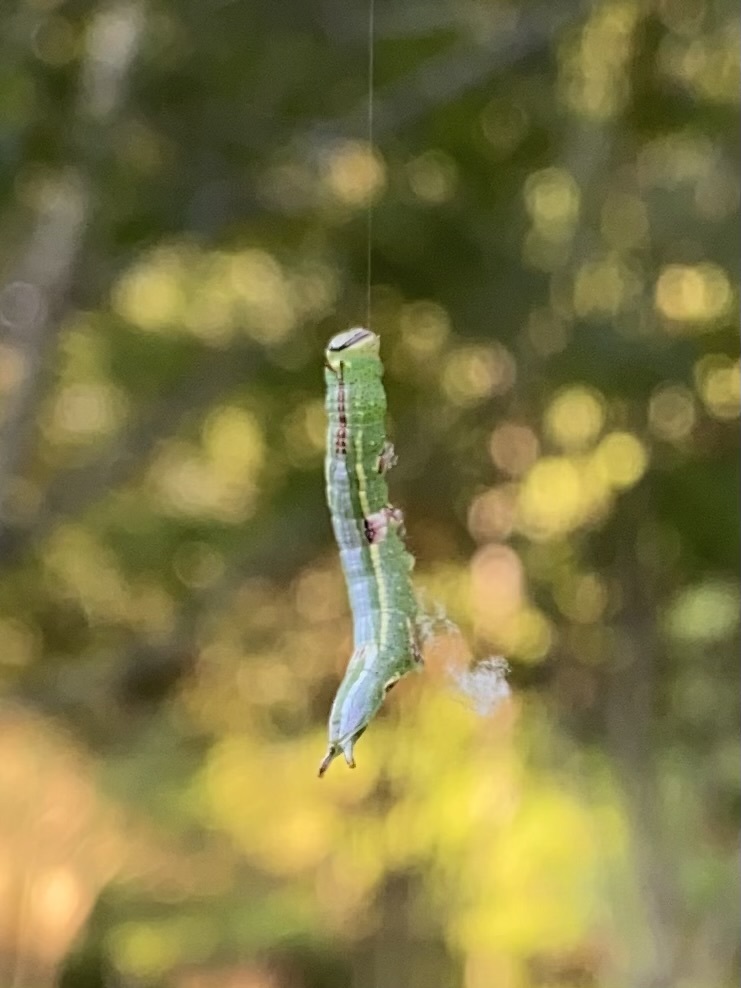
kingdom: Animalia
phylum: Arthropoda
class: Insecta
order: Lepidoptera
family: Notodontidae
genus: Disphragis
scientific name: Disphragis Cecrita guttivitta
